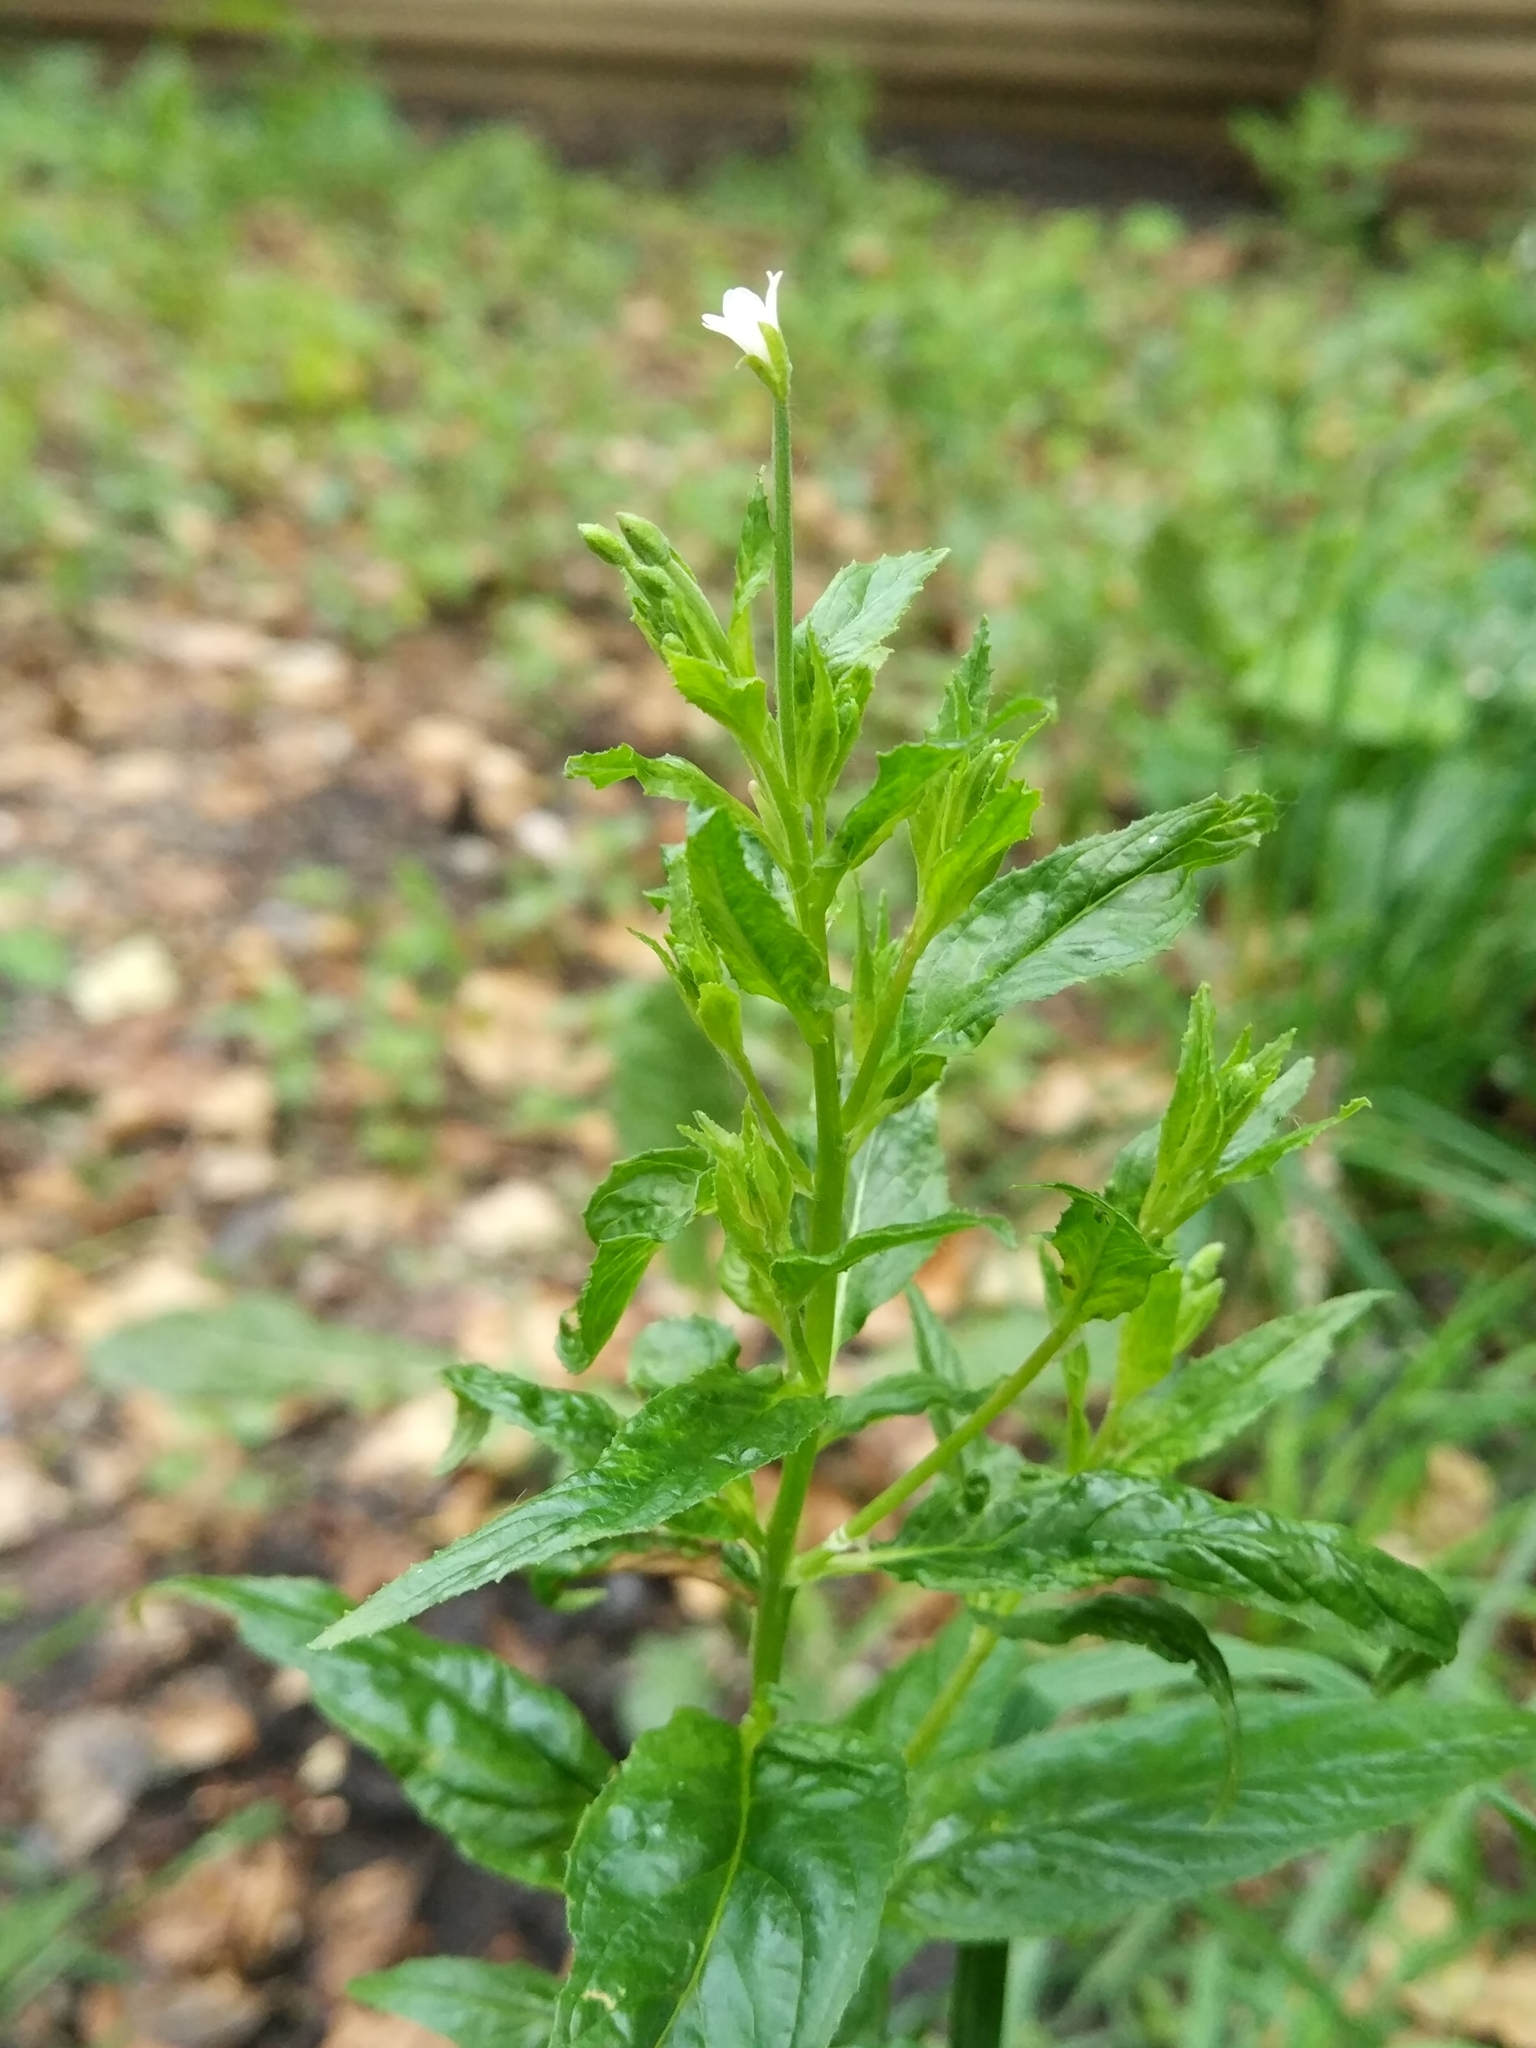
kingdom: Plantae
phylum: Tracheophyta
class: Magnoliopsida
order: Myrtales
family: Onagraceae
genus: Epilobium
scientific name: Epilobium pseudorubescens
